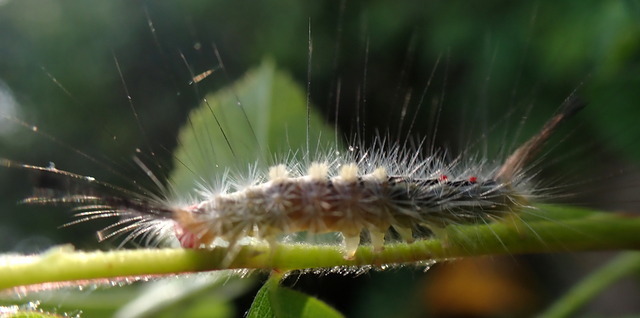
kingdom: Animalia
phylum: Arthropoda
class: Insecta
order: Lepidoptera
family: Erebidae
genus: Orgyia
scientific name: Orgyia leucostigma
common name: White-marked tussock moth
